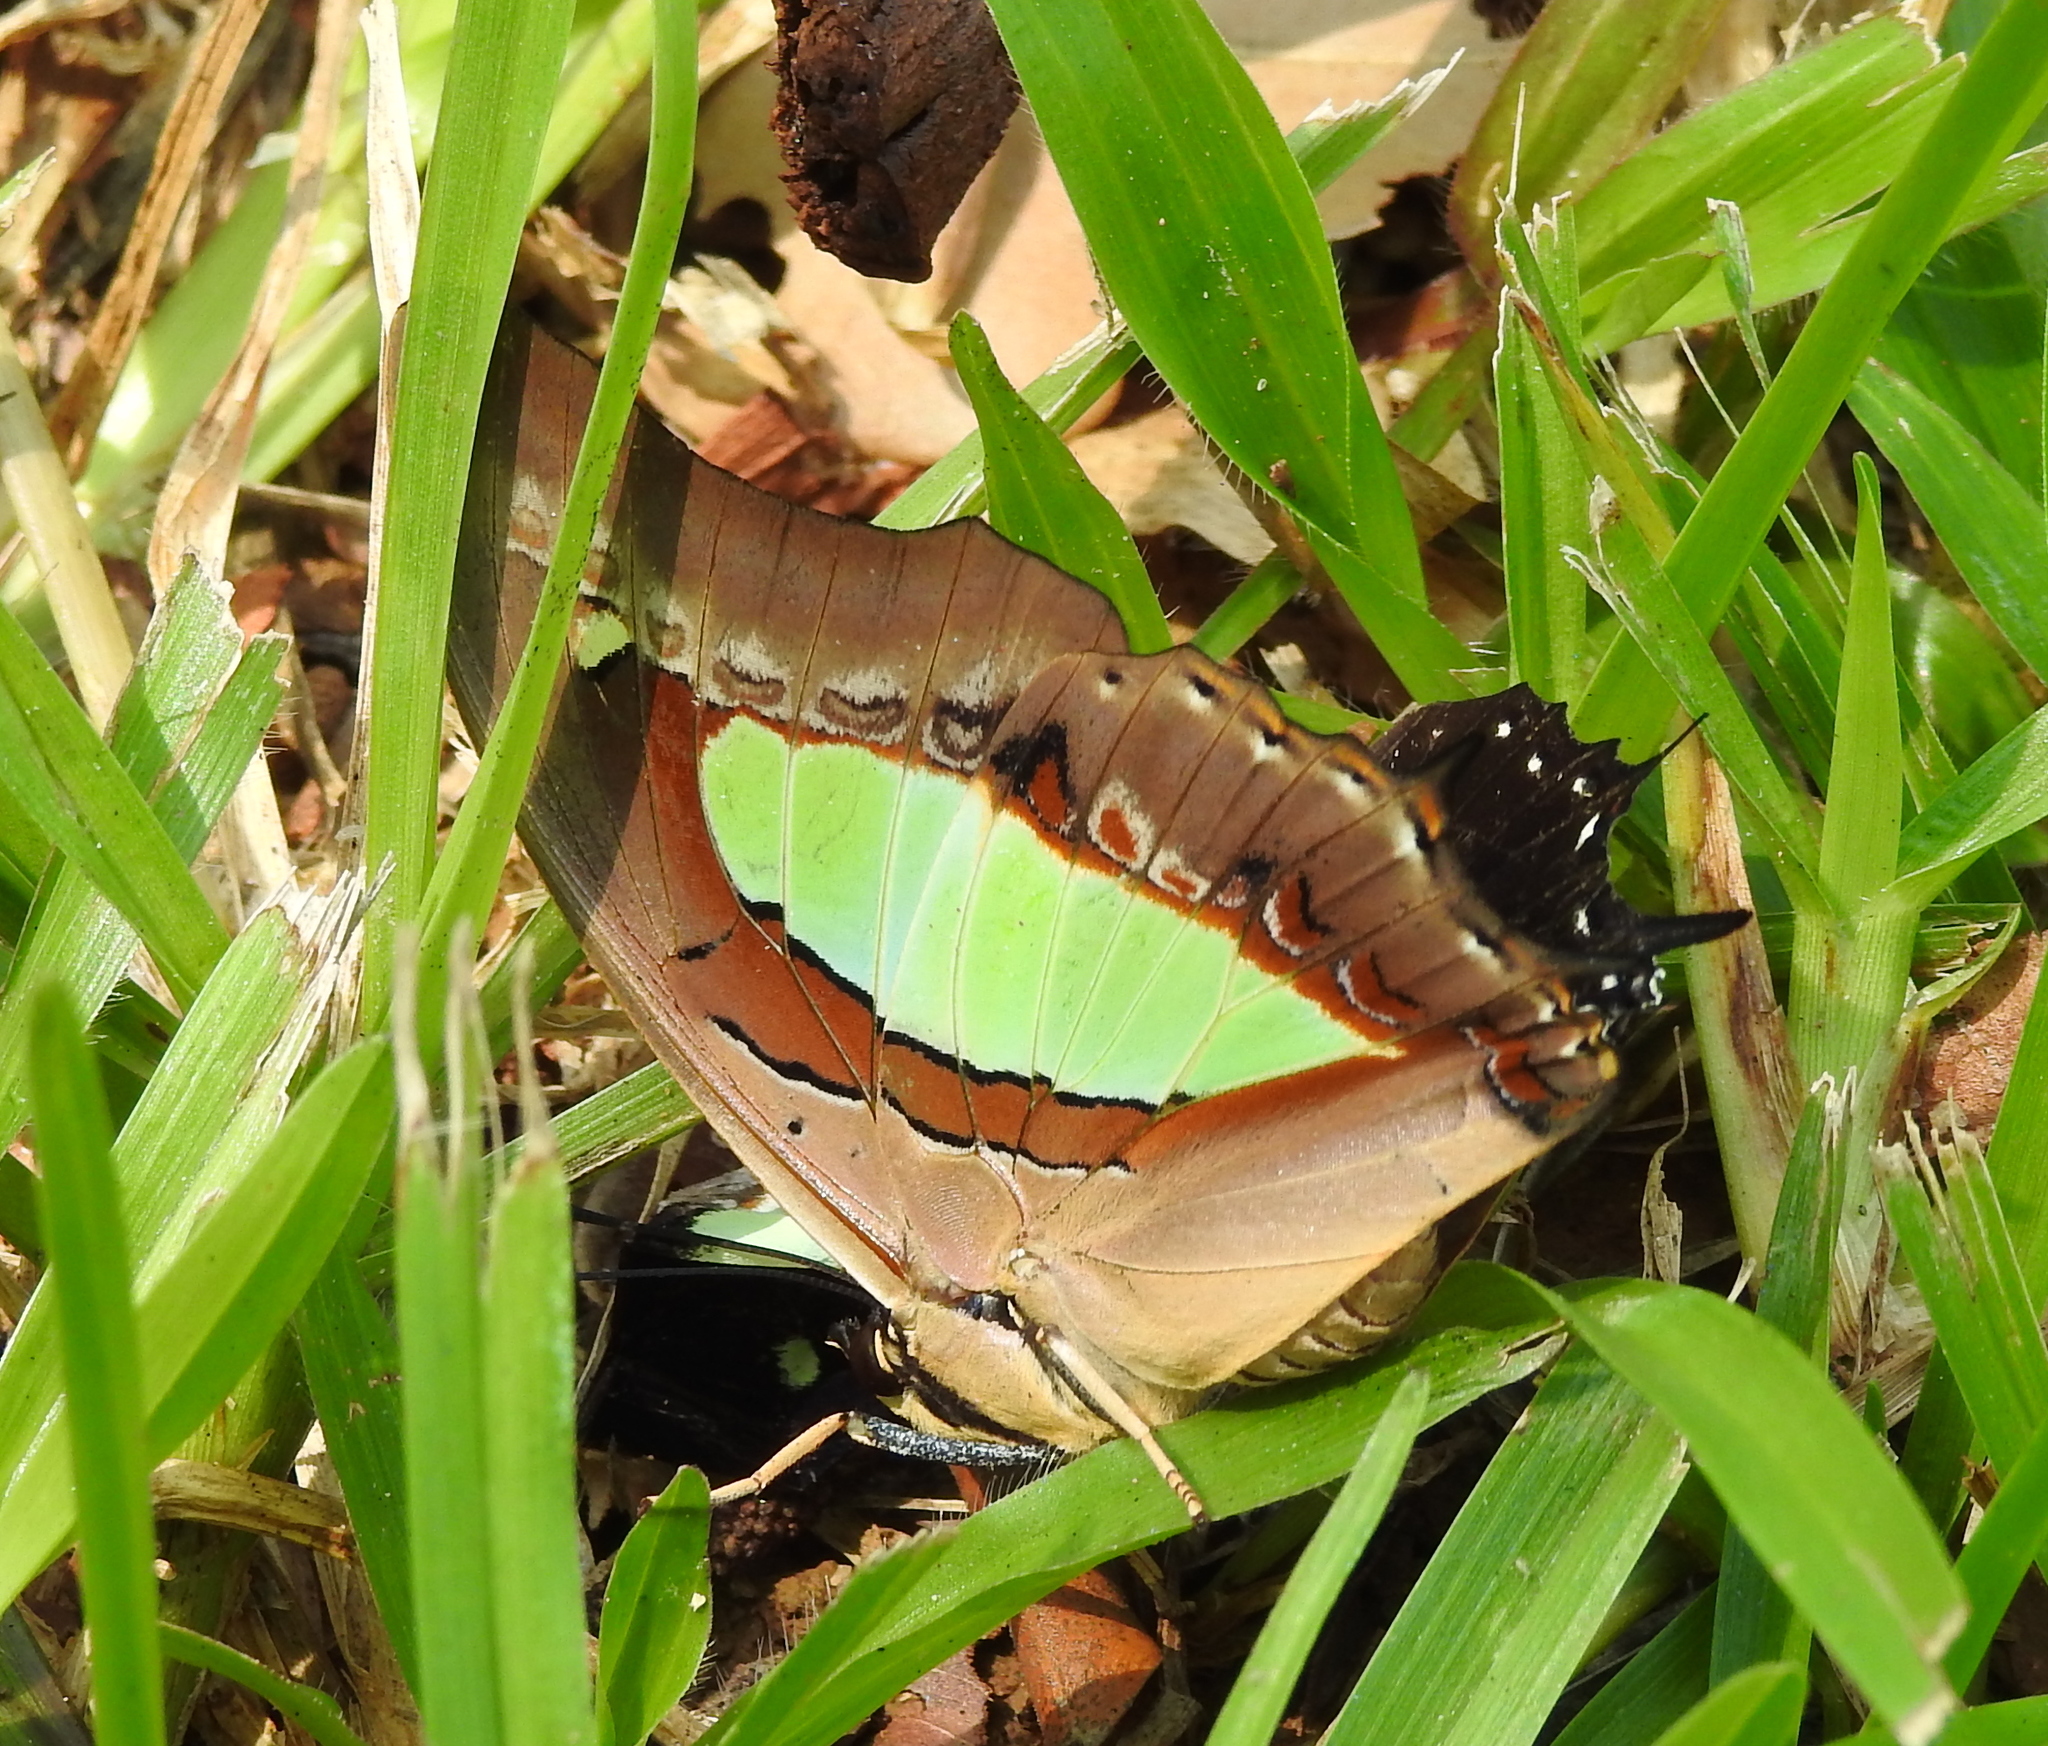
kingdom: Animalia
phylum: Arthropoda
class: Insecta
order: Lepidoptera
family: Nymphalidae
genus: Polyura
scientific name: Polyura hebe
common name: Plain nawab
